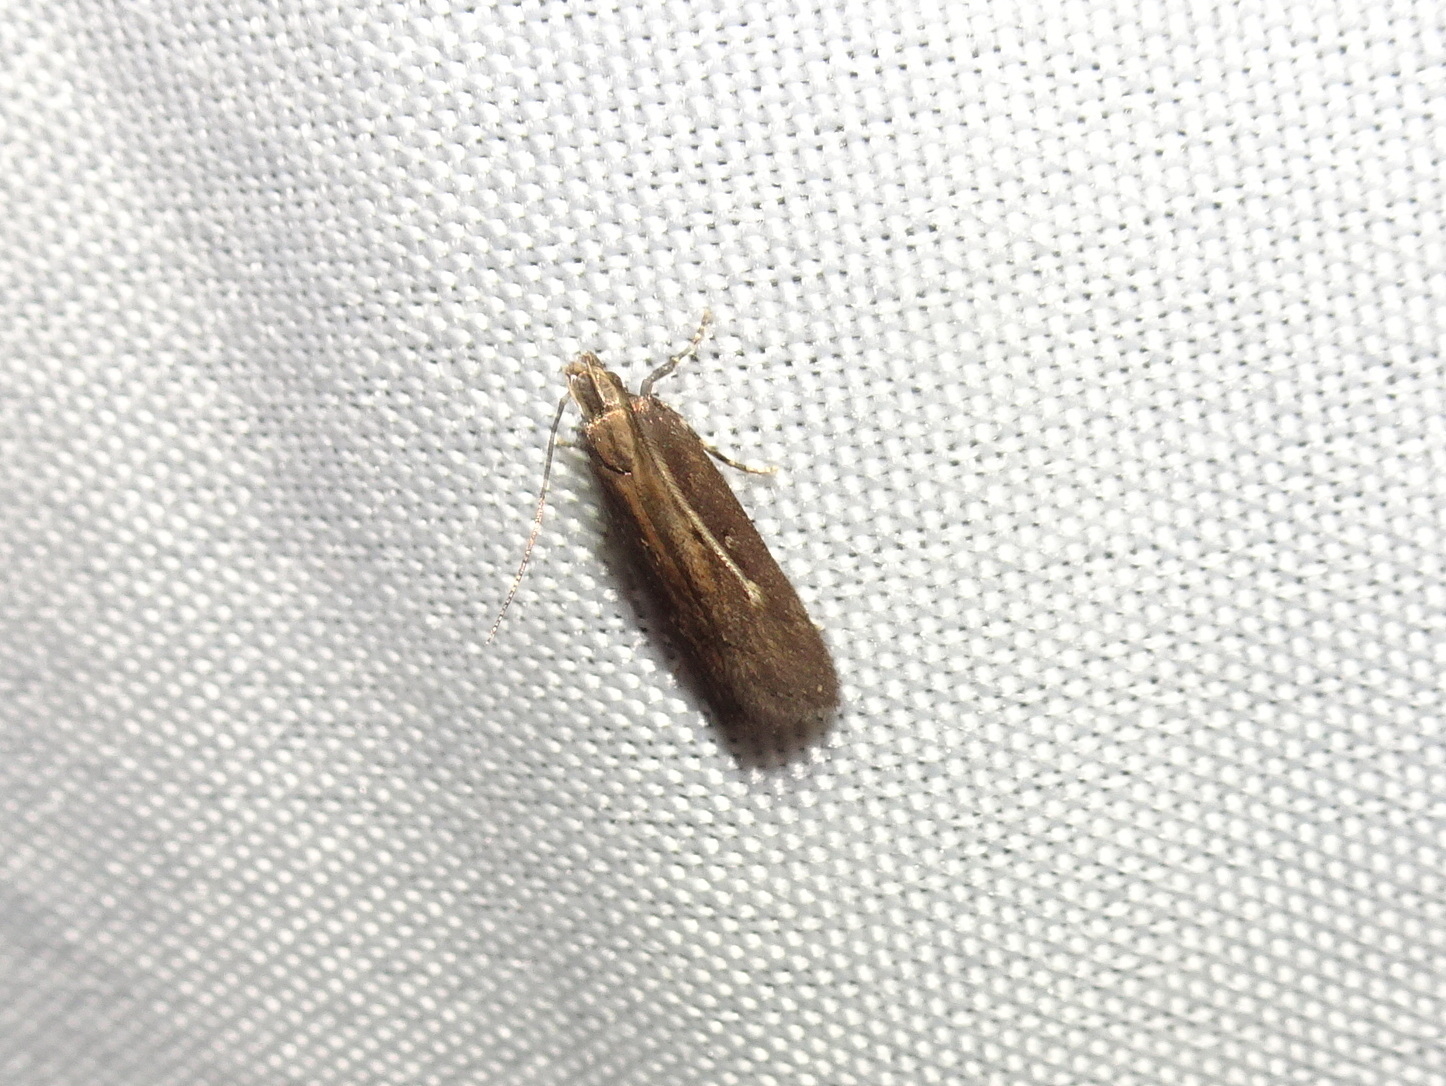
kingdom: Animalia
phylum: Arthropoda
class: Insecta
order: Lepidoptera
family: Gelechiidae
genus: Chionodes
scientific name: Chionodes discoocellella
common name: Eye-ringed chionodes moth
